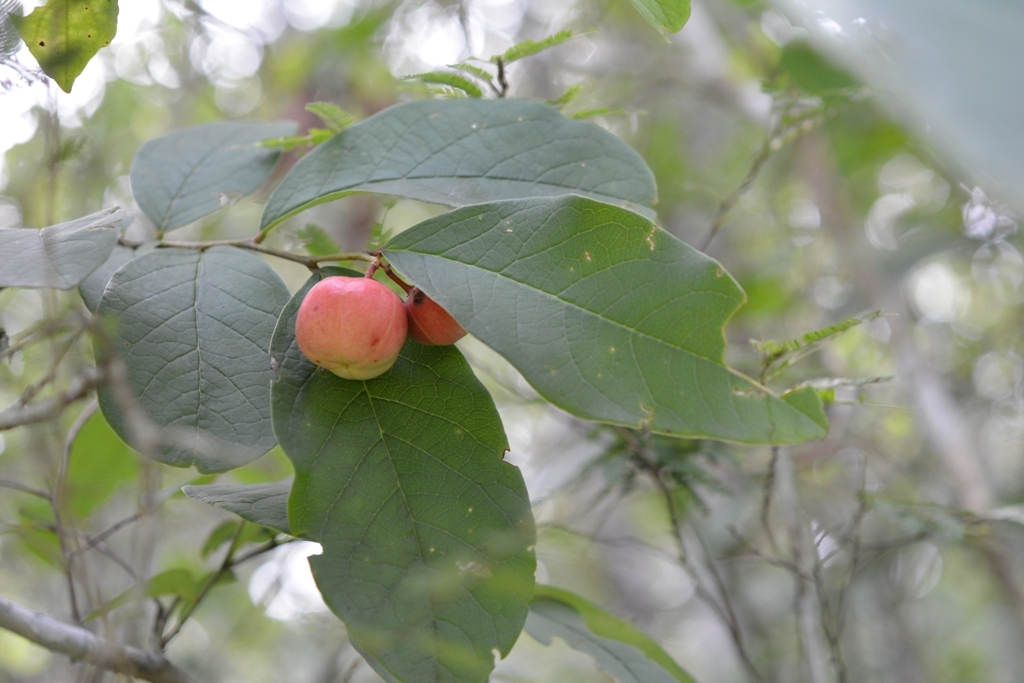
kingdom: Plantae
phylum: Tracheophyta
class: Magnoliopsida
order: Malpighiales
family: Phyllanthaceae
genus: Phyllanthus
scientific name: Phyllanthus grandifolius
